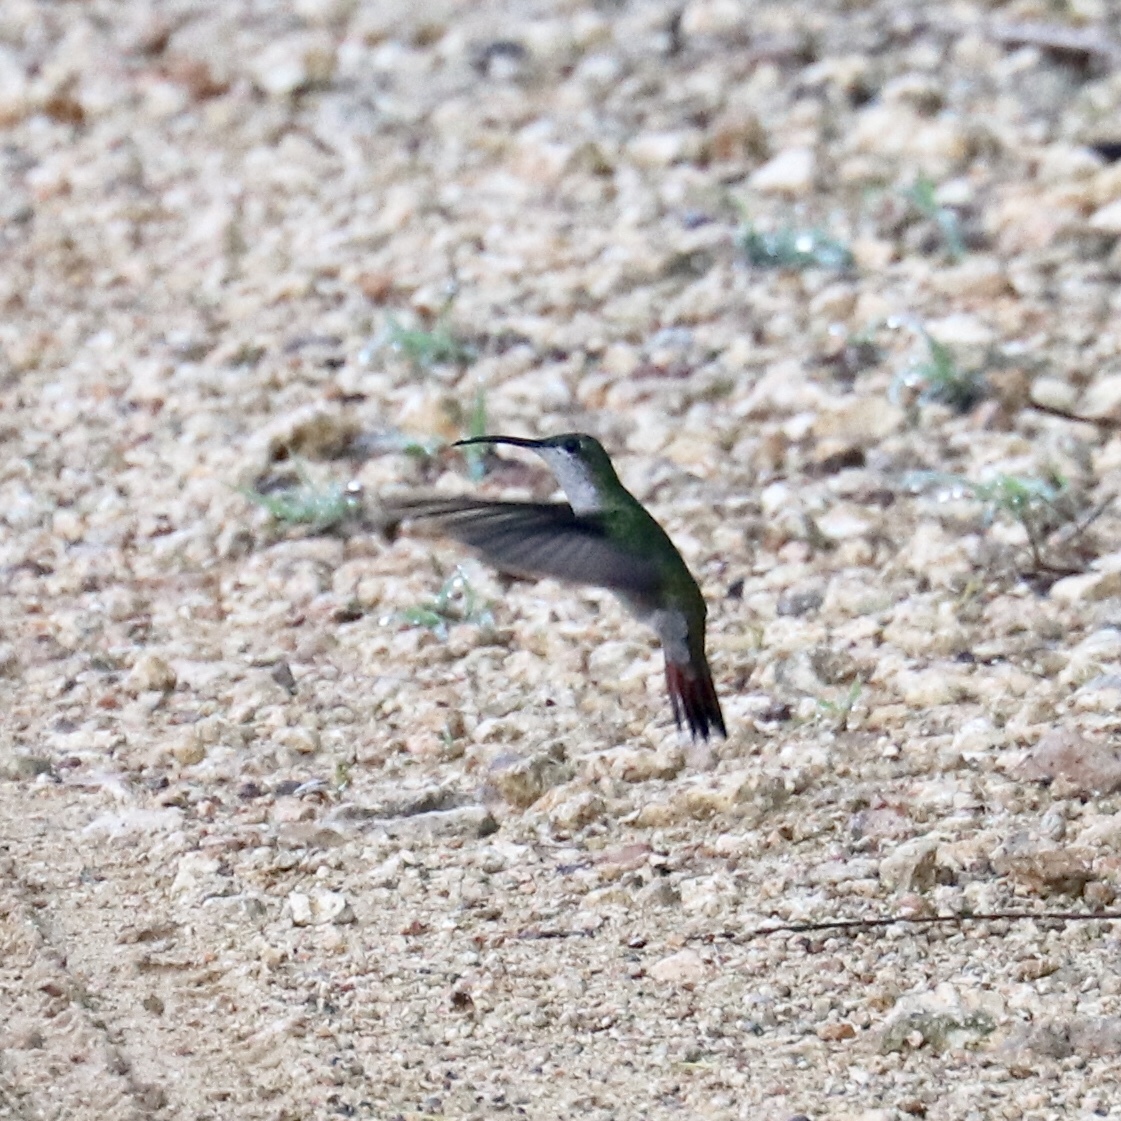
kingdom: Animalia
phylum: Chordata
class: Aves
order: Apodiformes
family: Trochilidae
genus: Anthracothorax
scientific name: Anthracothorax dominicus
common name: Antillean mango
